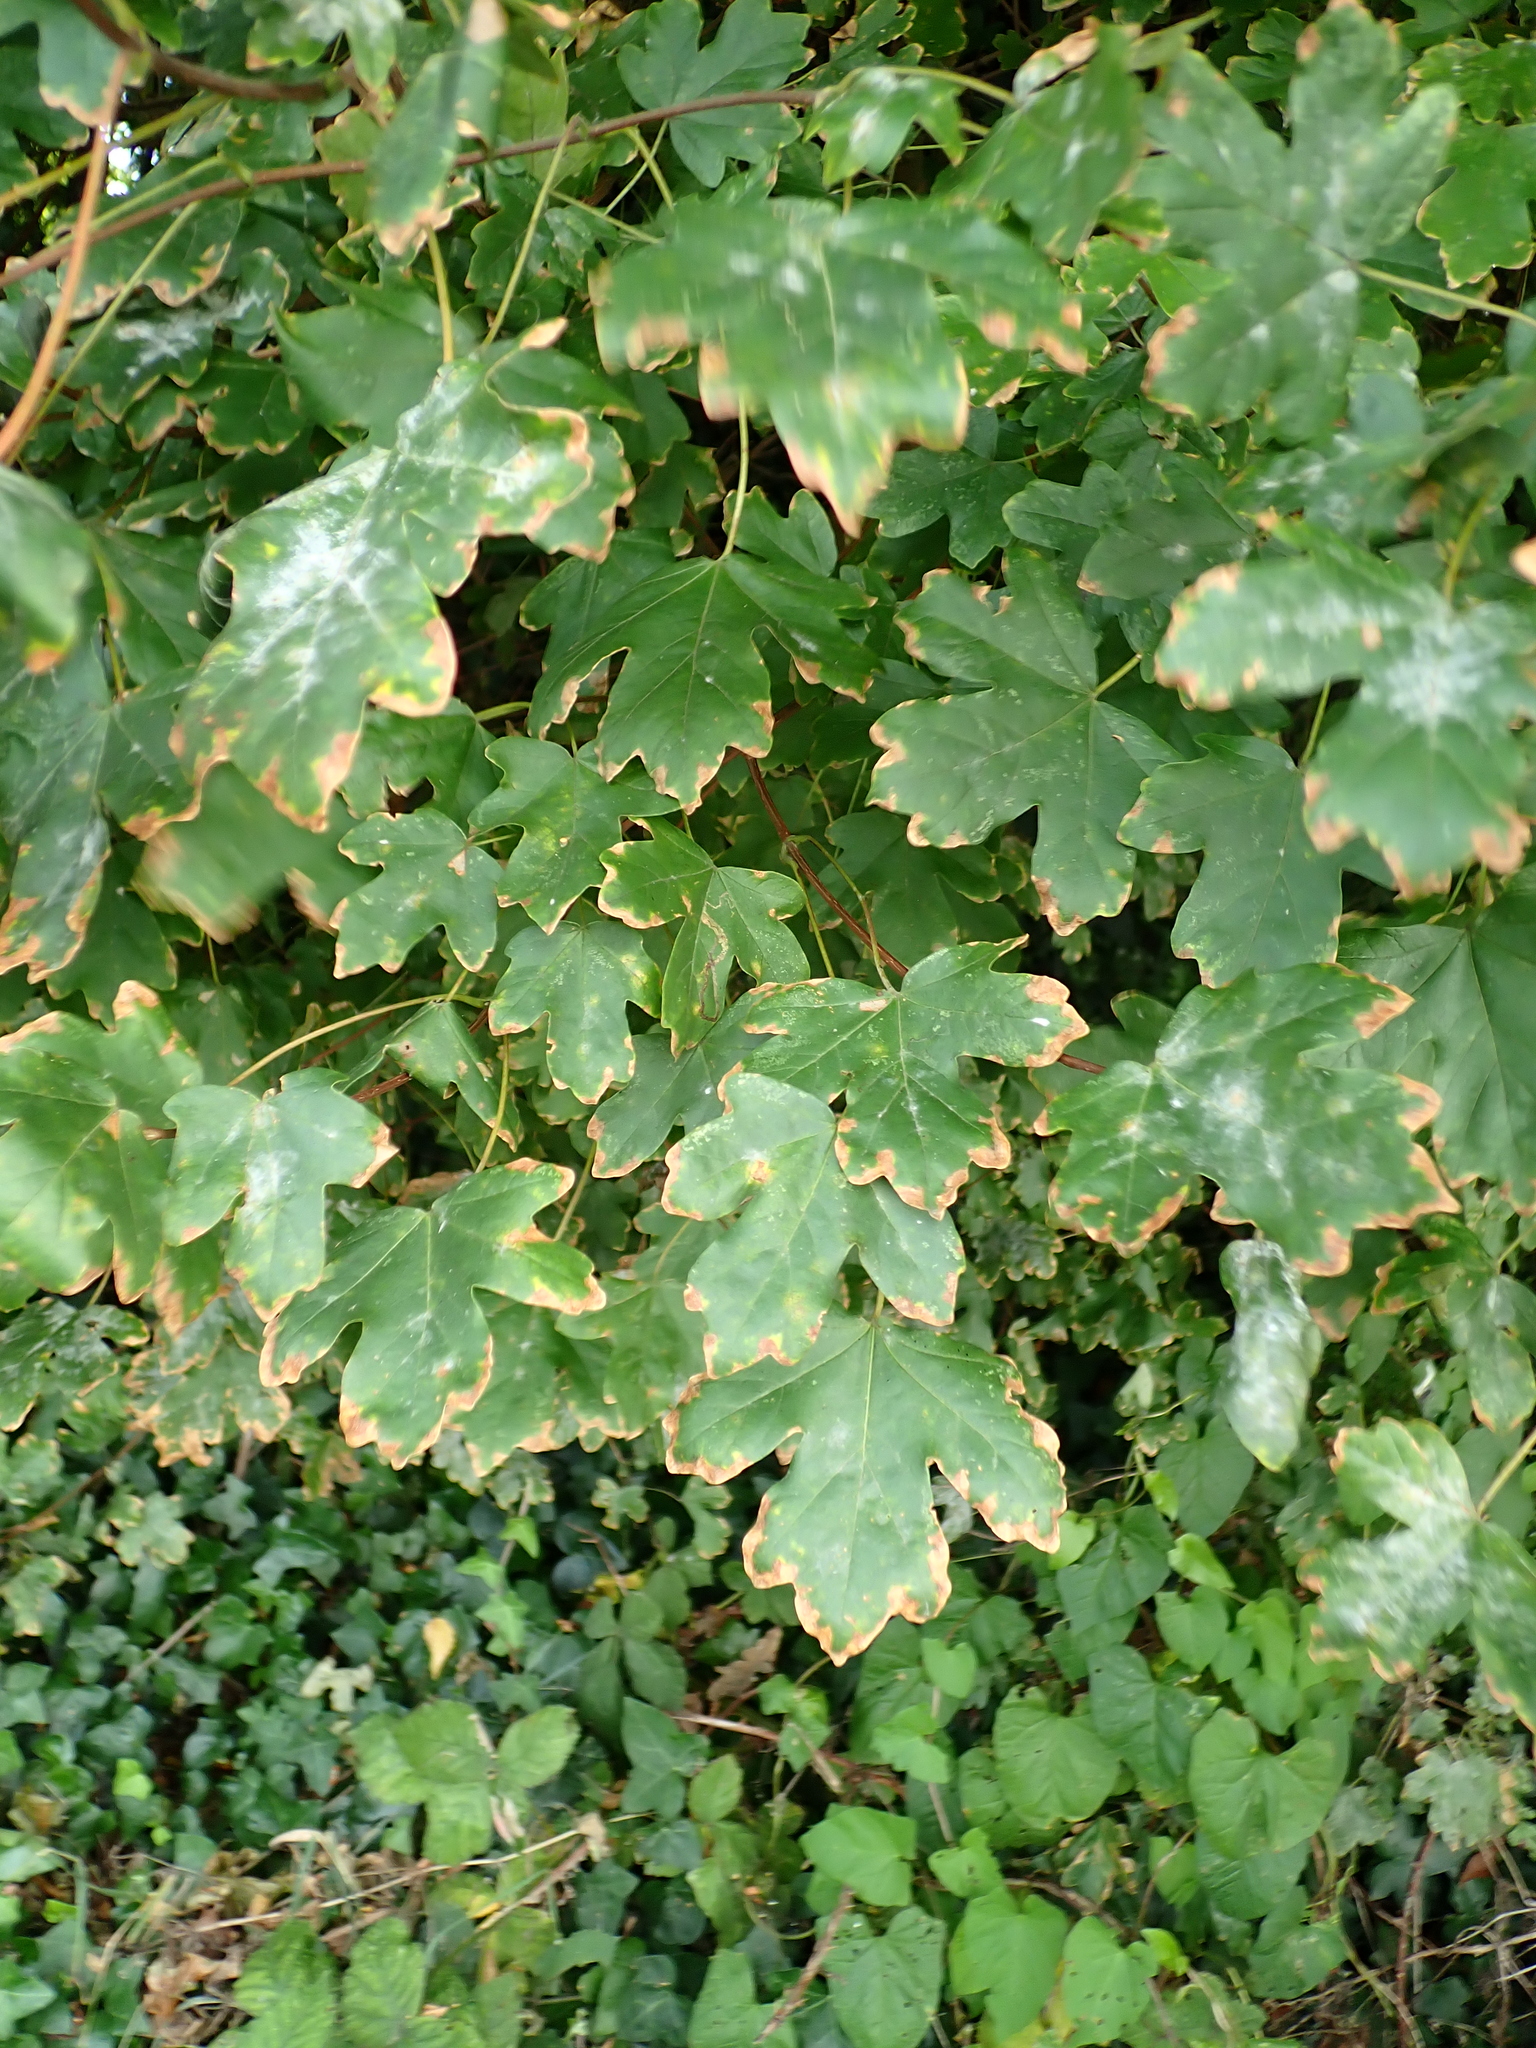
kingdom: Plantae
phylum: Tracheophyta
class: Magnoliopsida
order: Sapindales
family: Sapindaceae
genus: Acer
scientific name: Acer campestre
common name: Field maple
